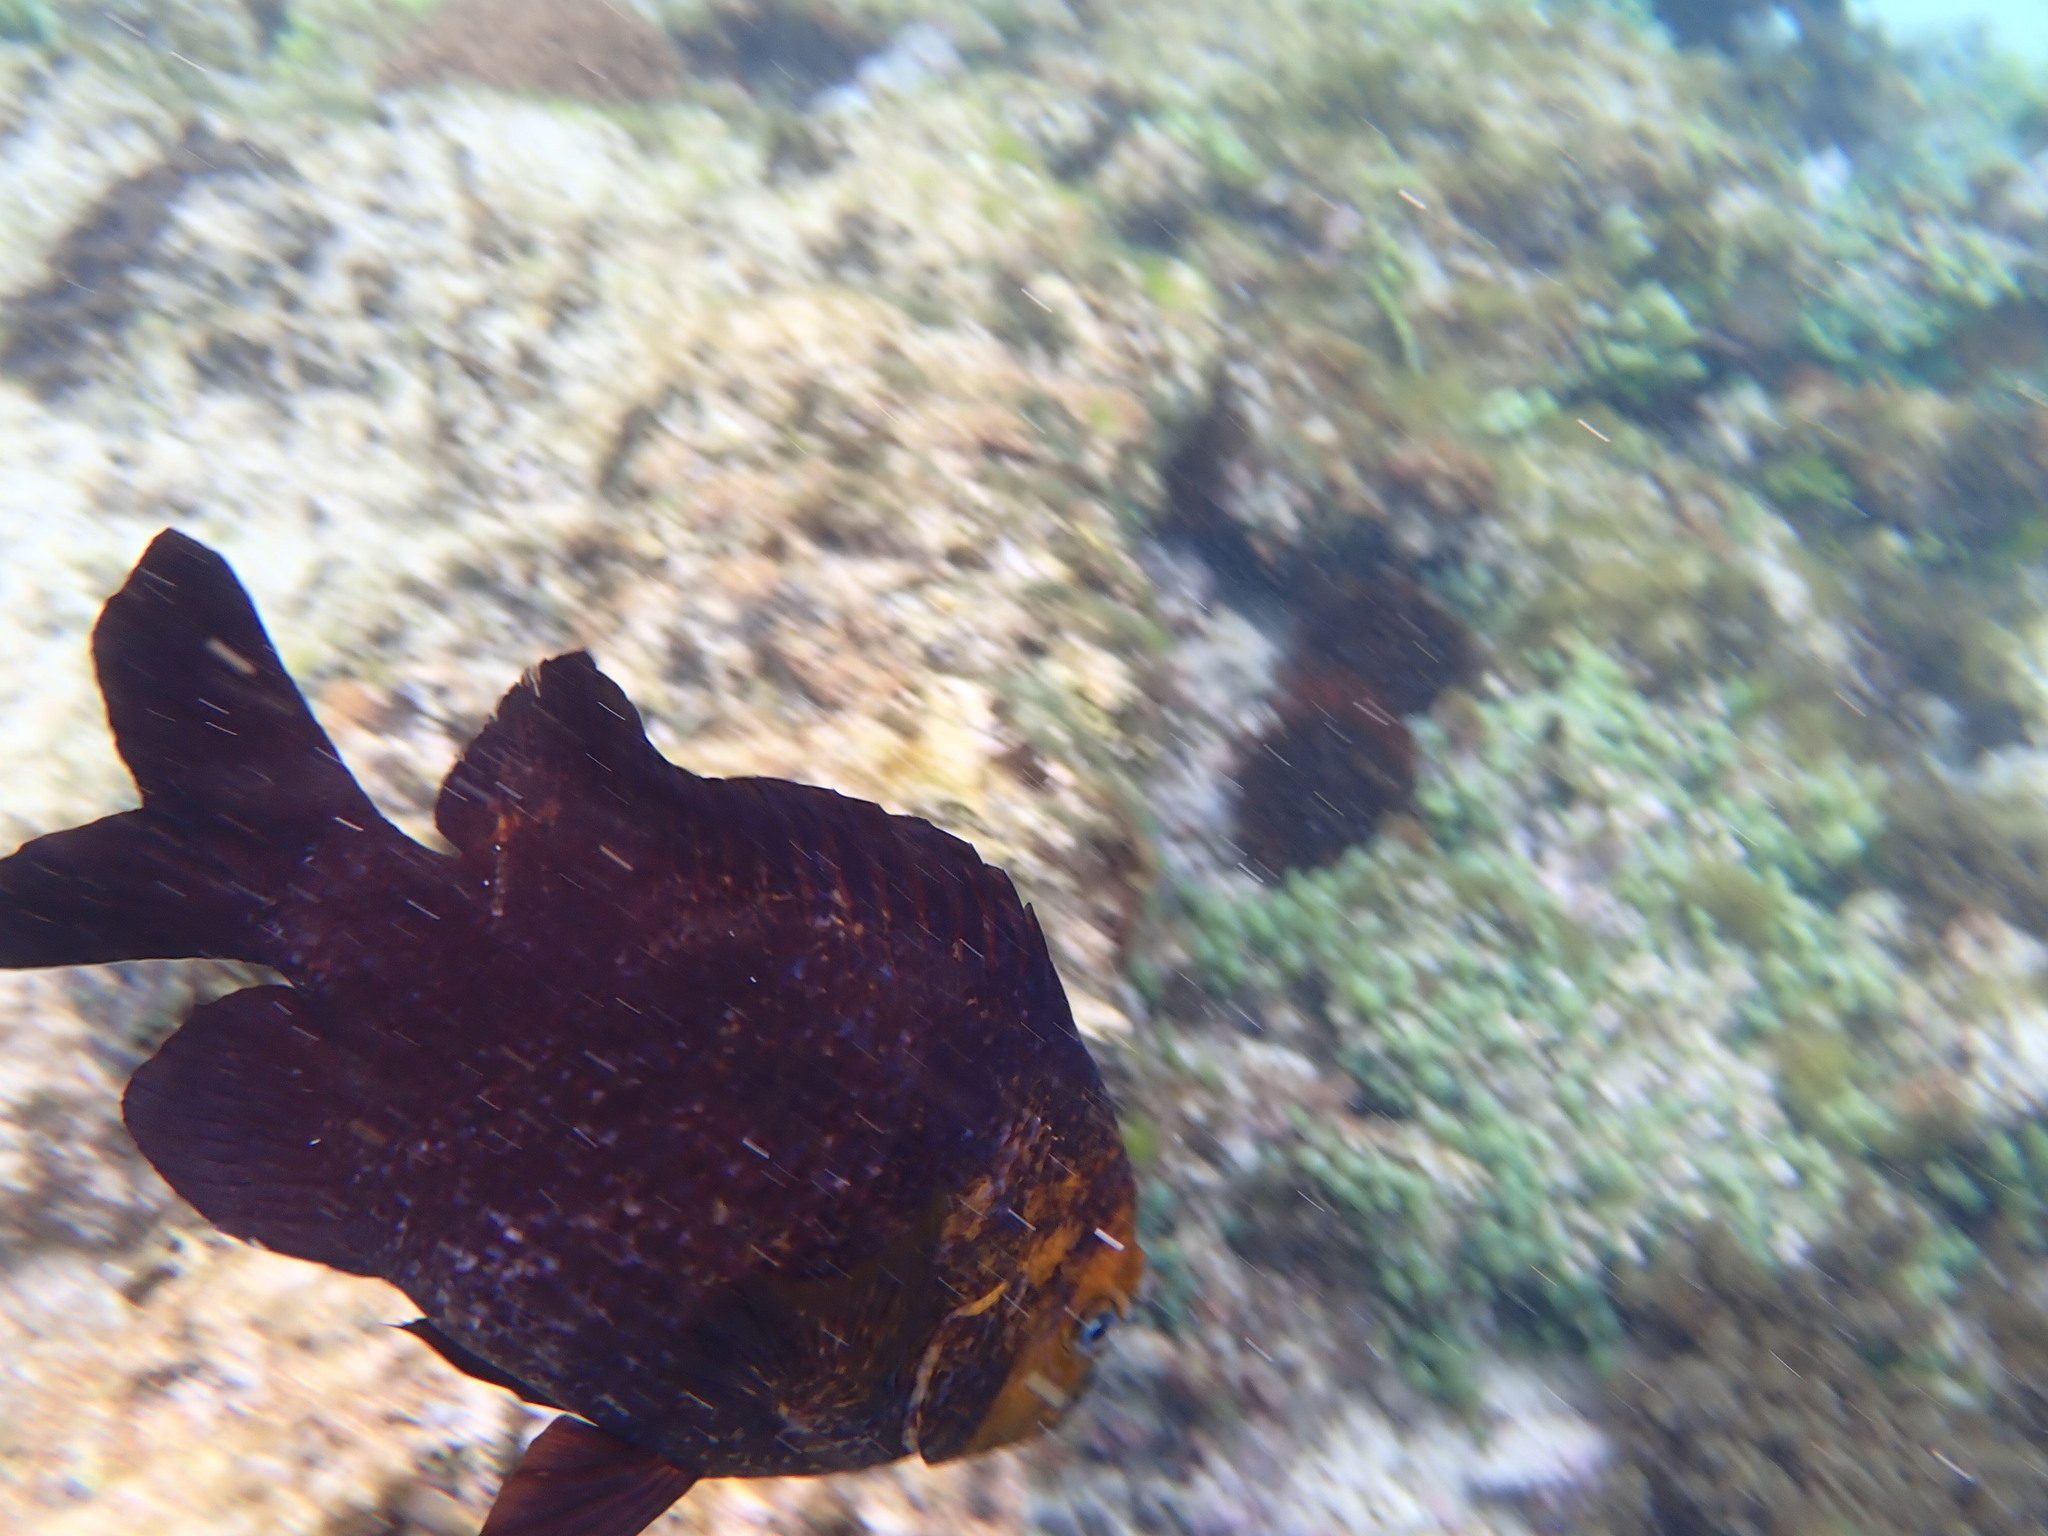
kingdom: Animalia
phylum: Chordata
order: Perciformes
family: Pomacentridae
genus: Parma
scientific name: Parma polylepis
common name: Banded parma
